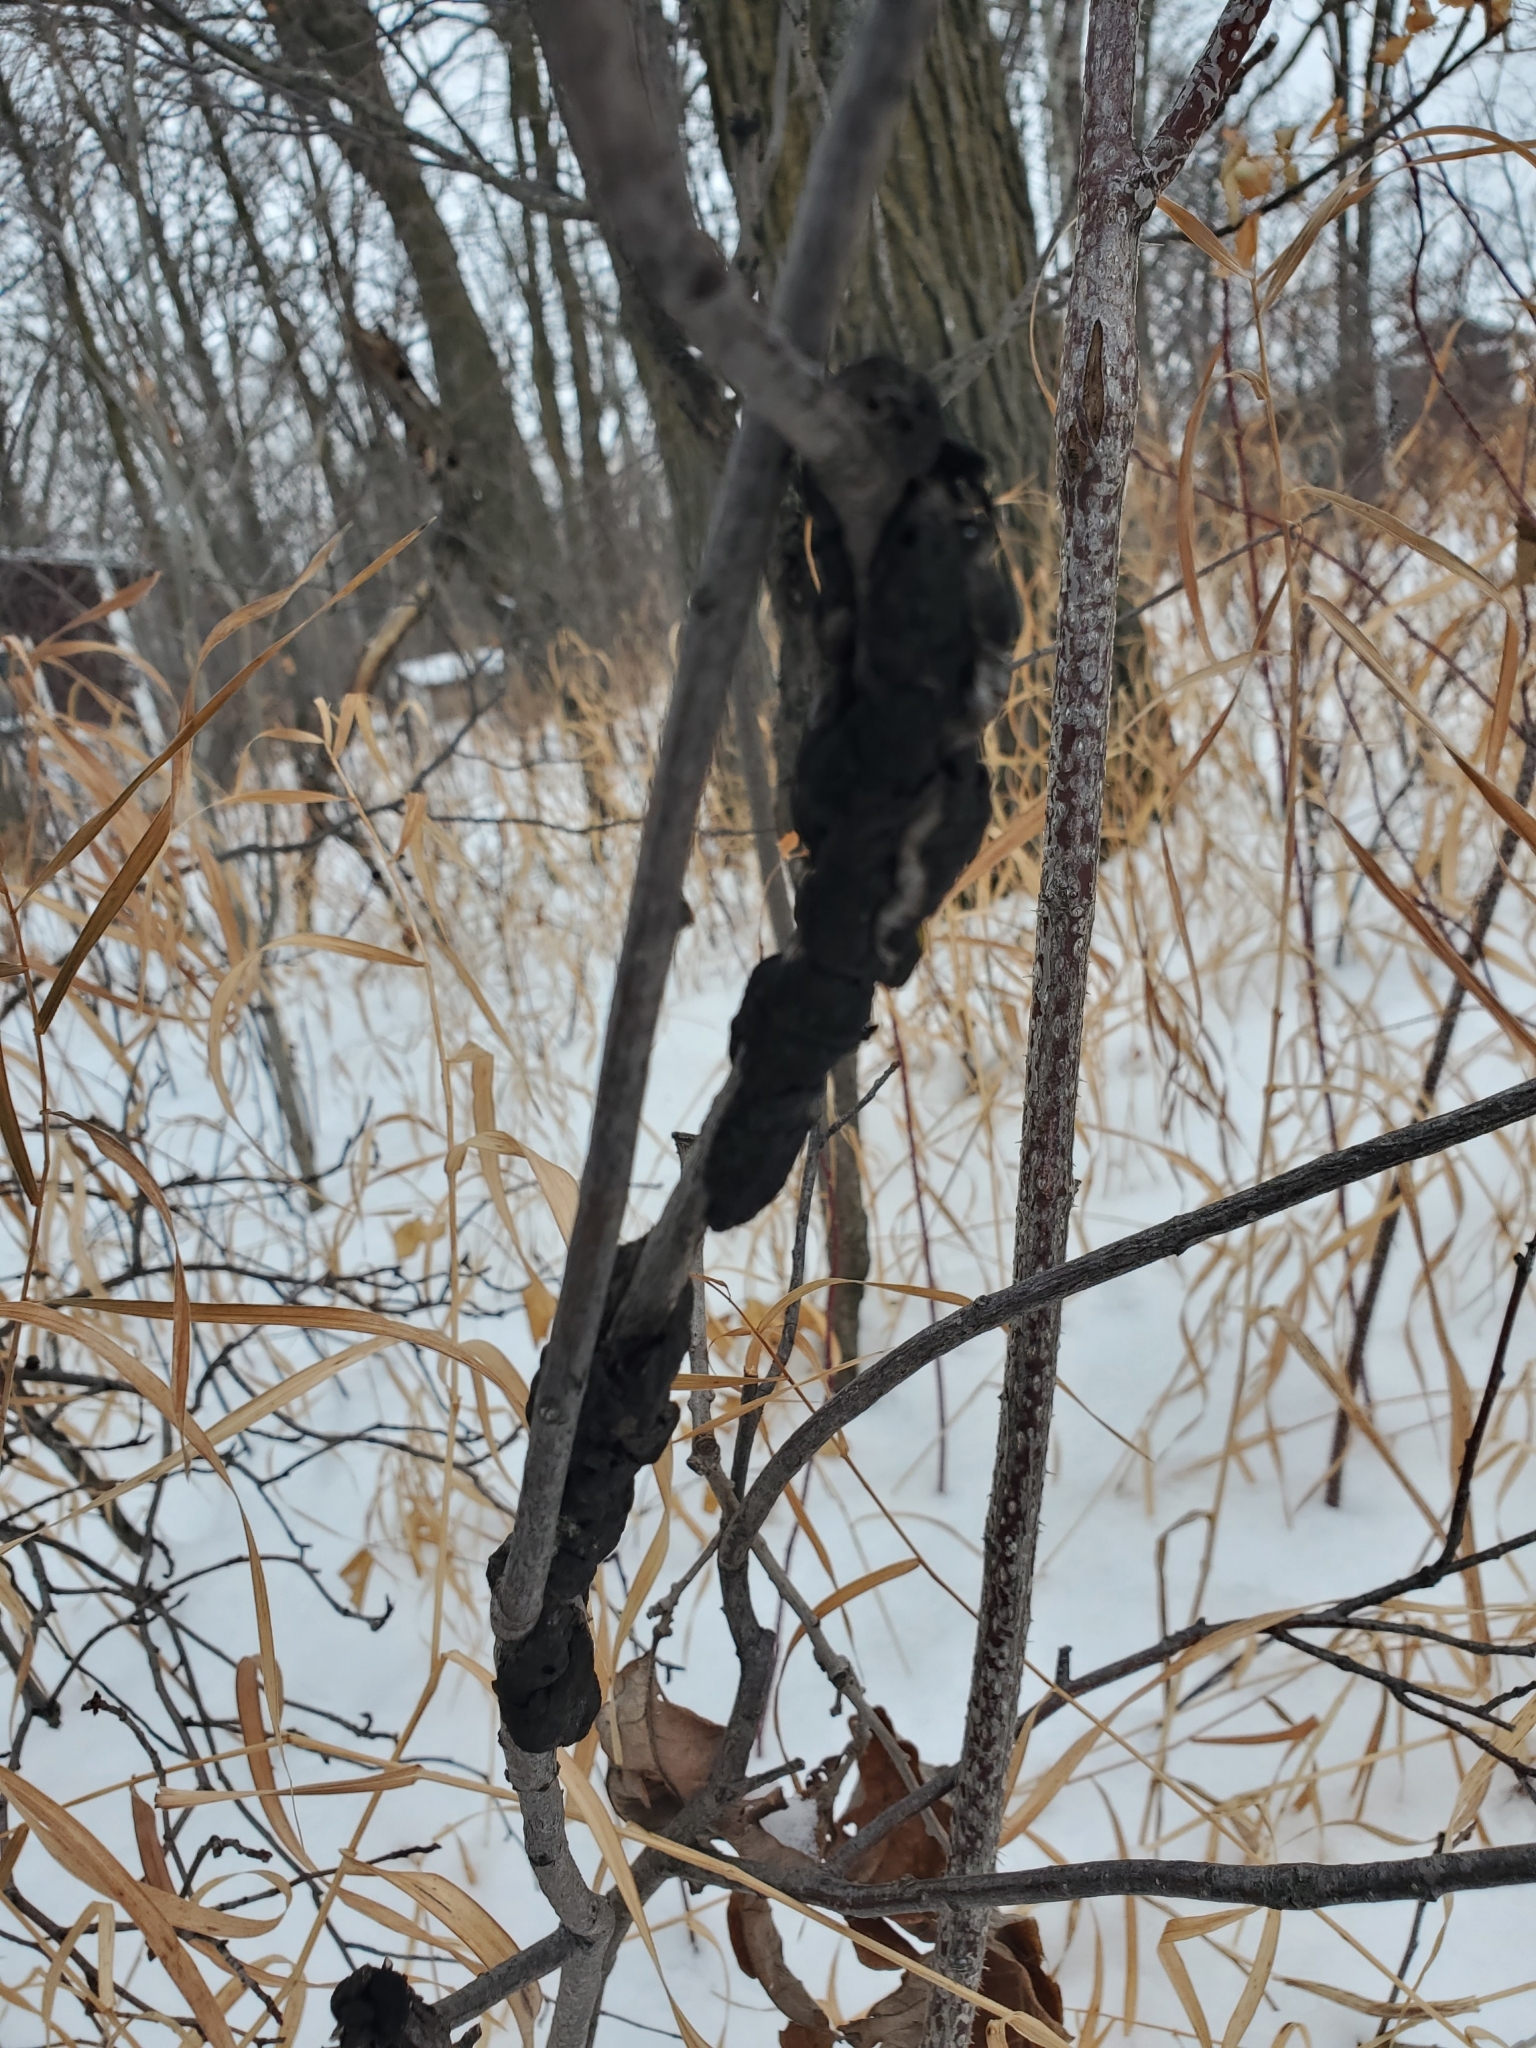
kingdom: Fungi
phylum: Ascomycota
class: Dothideomycetes
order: Venturiales
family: Venturiaceae
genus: Apiosporina
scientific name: Apiosporina morbosa
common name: Black knot
